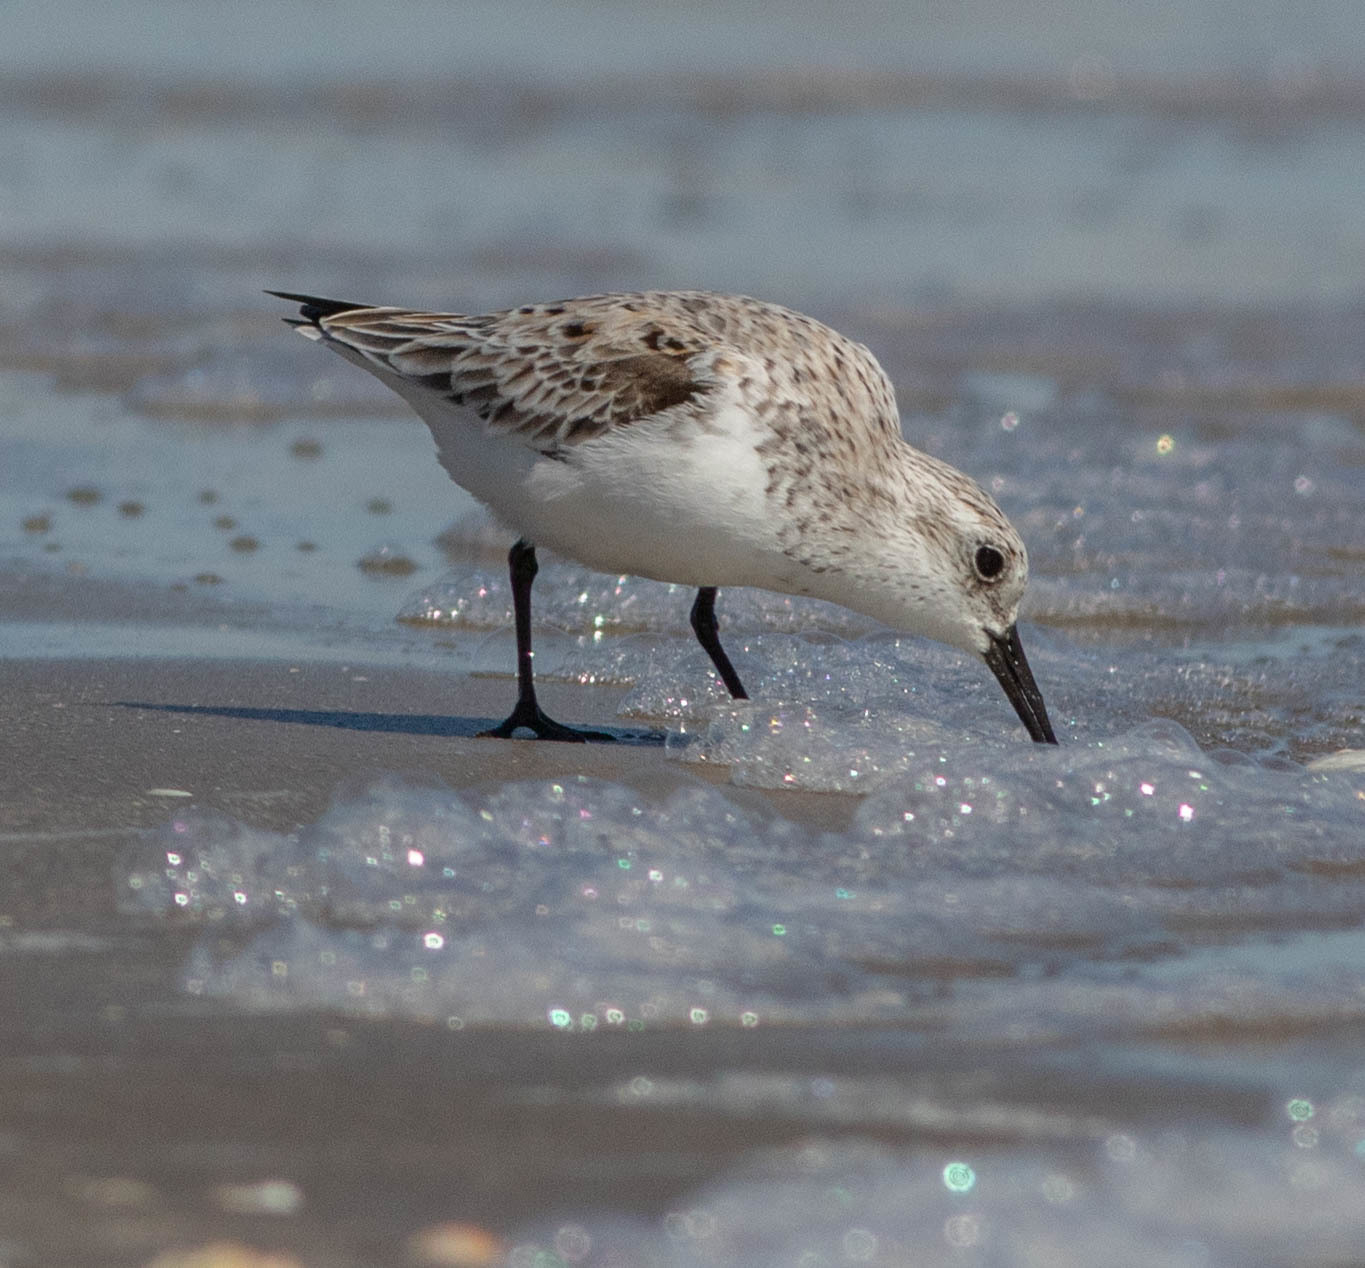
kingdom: Animalia
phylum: Chordata
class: Aves
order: Charadriiformes
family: Scolopacidae
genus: Calidris
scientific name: Calidris alba
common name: Sanderling
